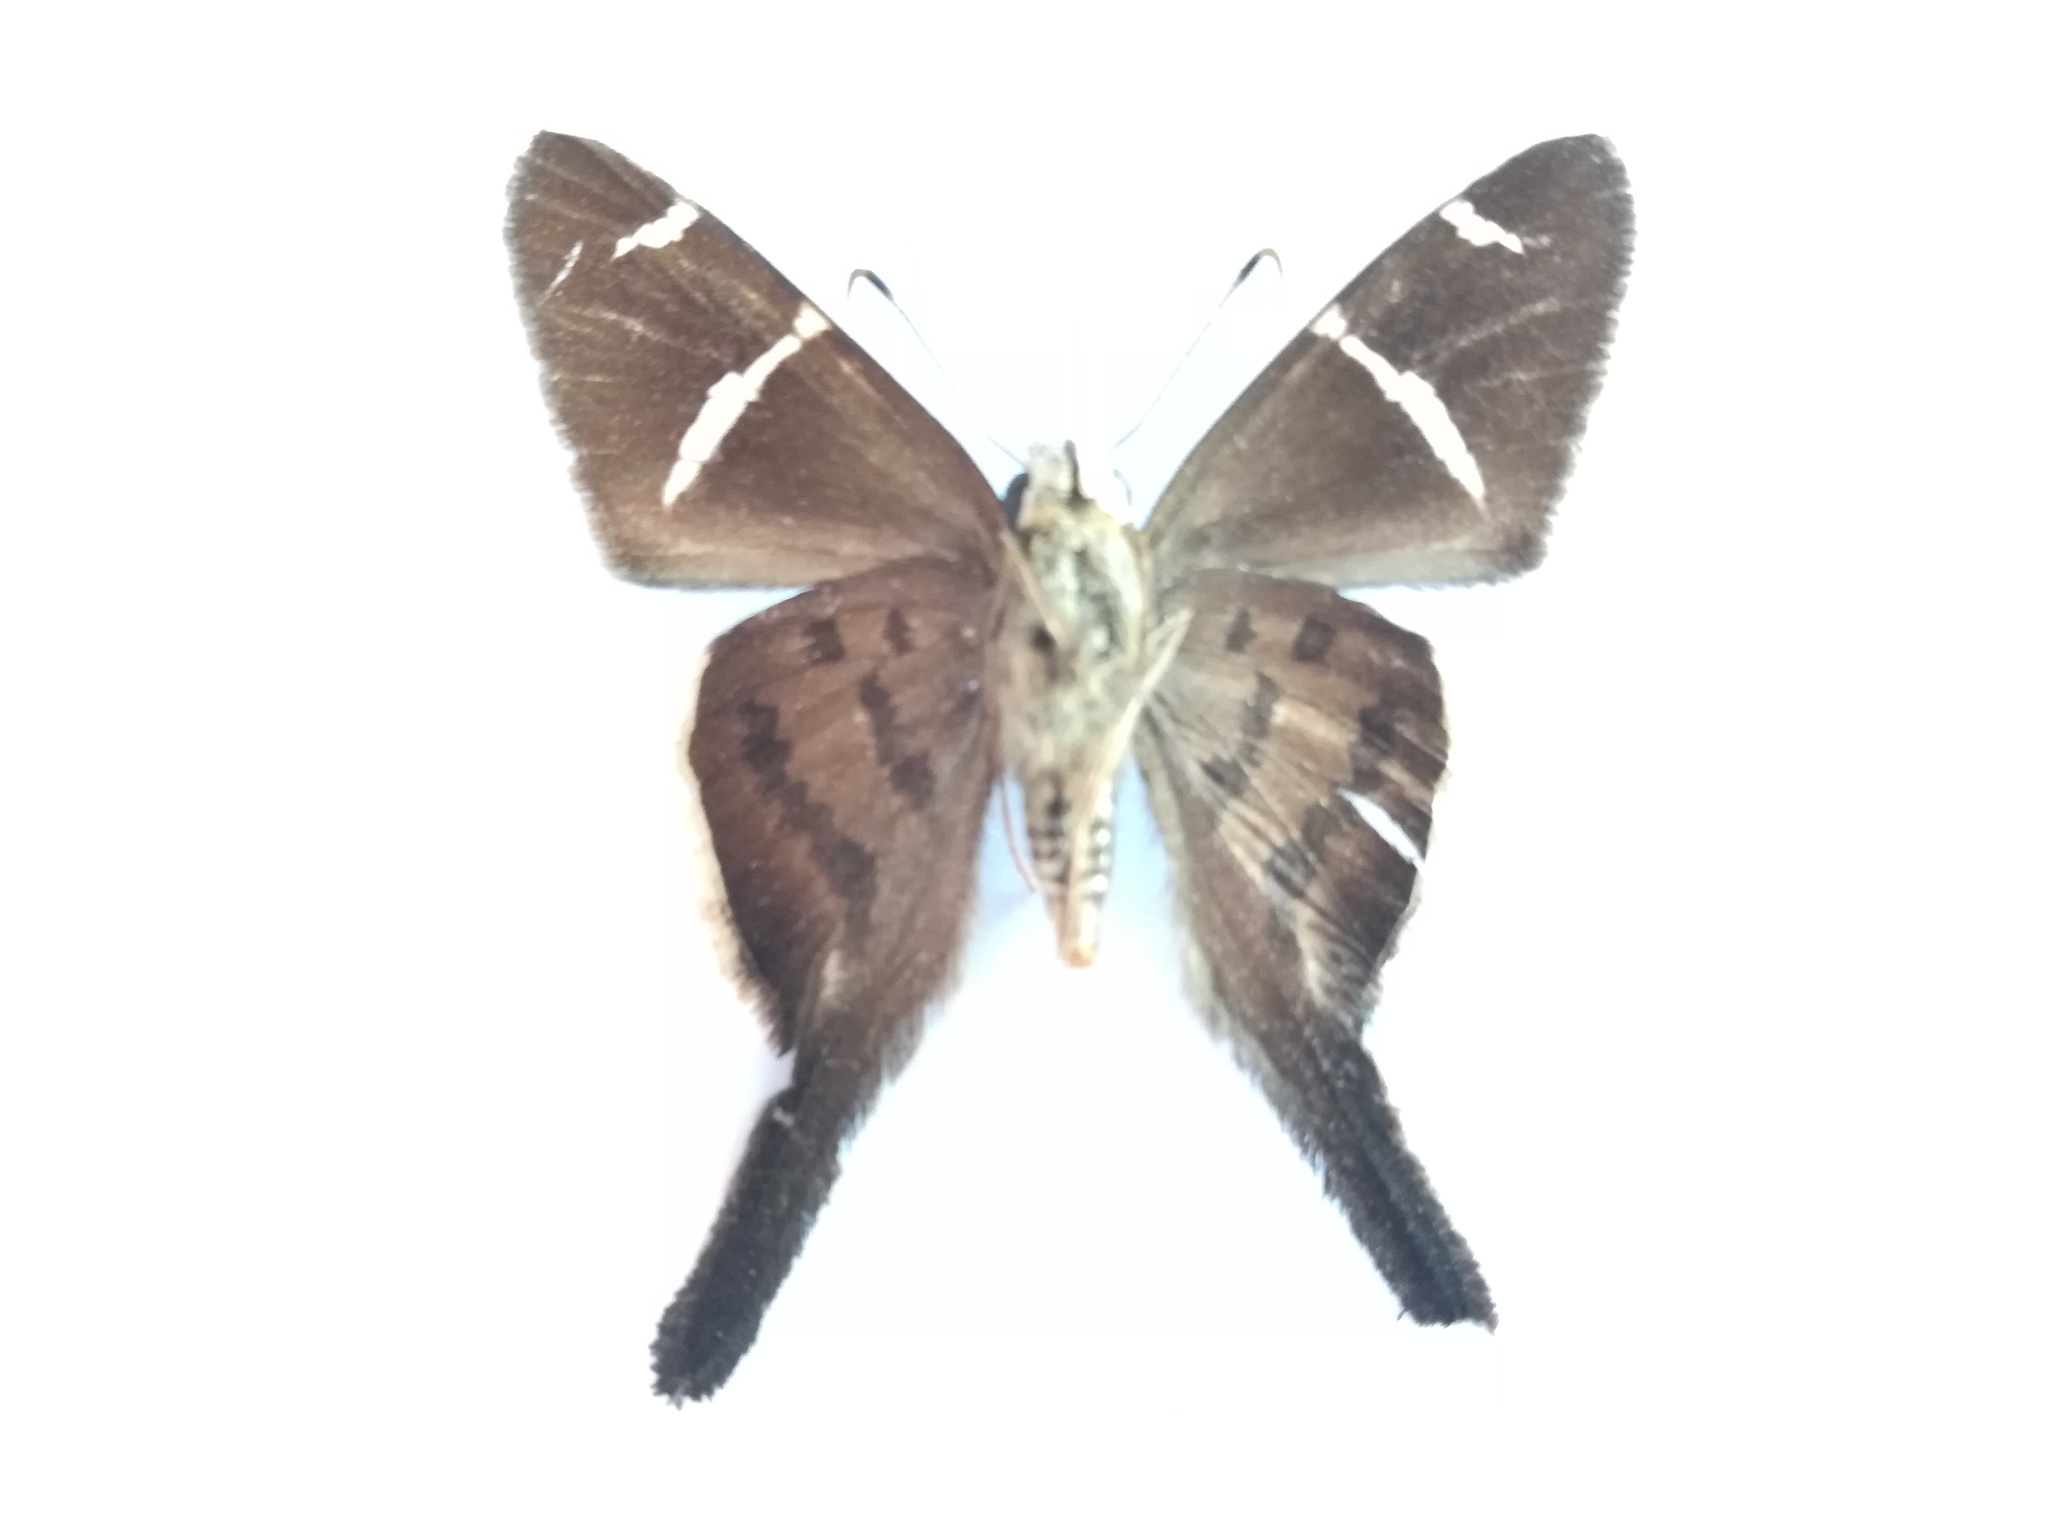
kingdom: Animalia
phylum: Arthropoda
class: Insecta
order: Lepidoptera
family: Hesperiidae
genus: Urbanus
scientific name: Urbanus teleus
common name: Teleus longtail
